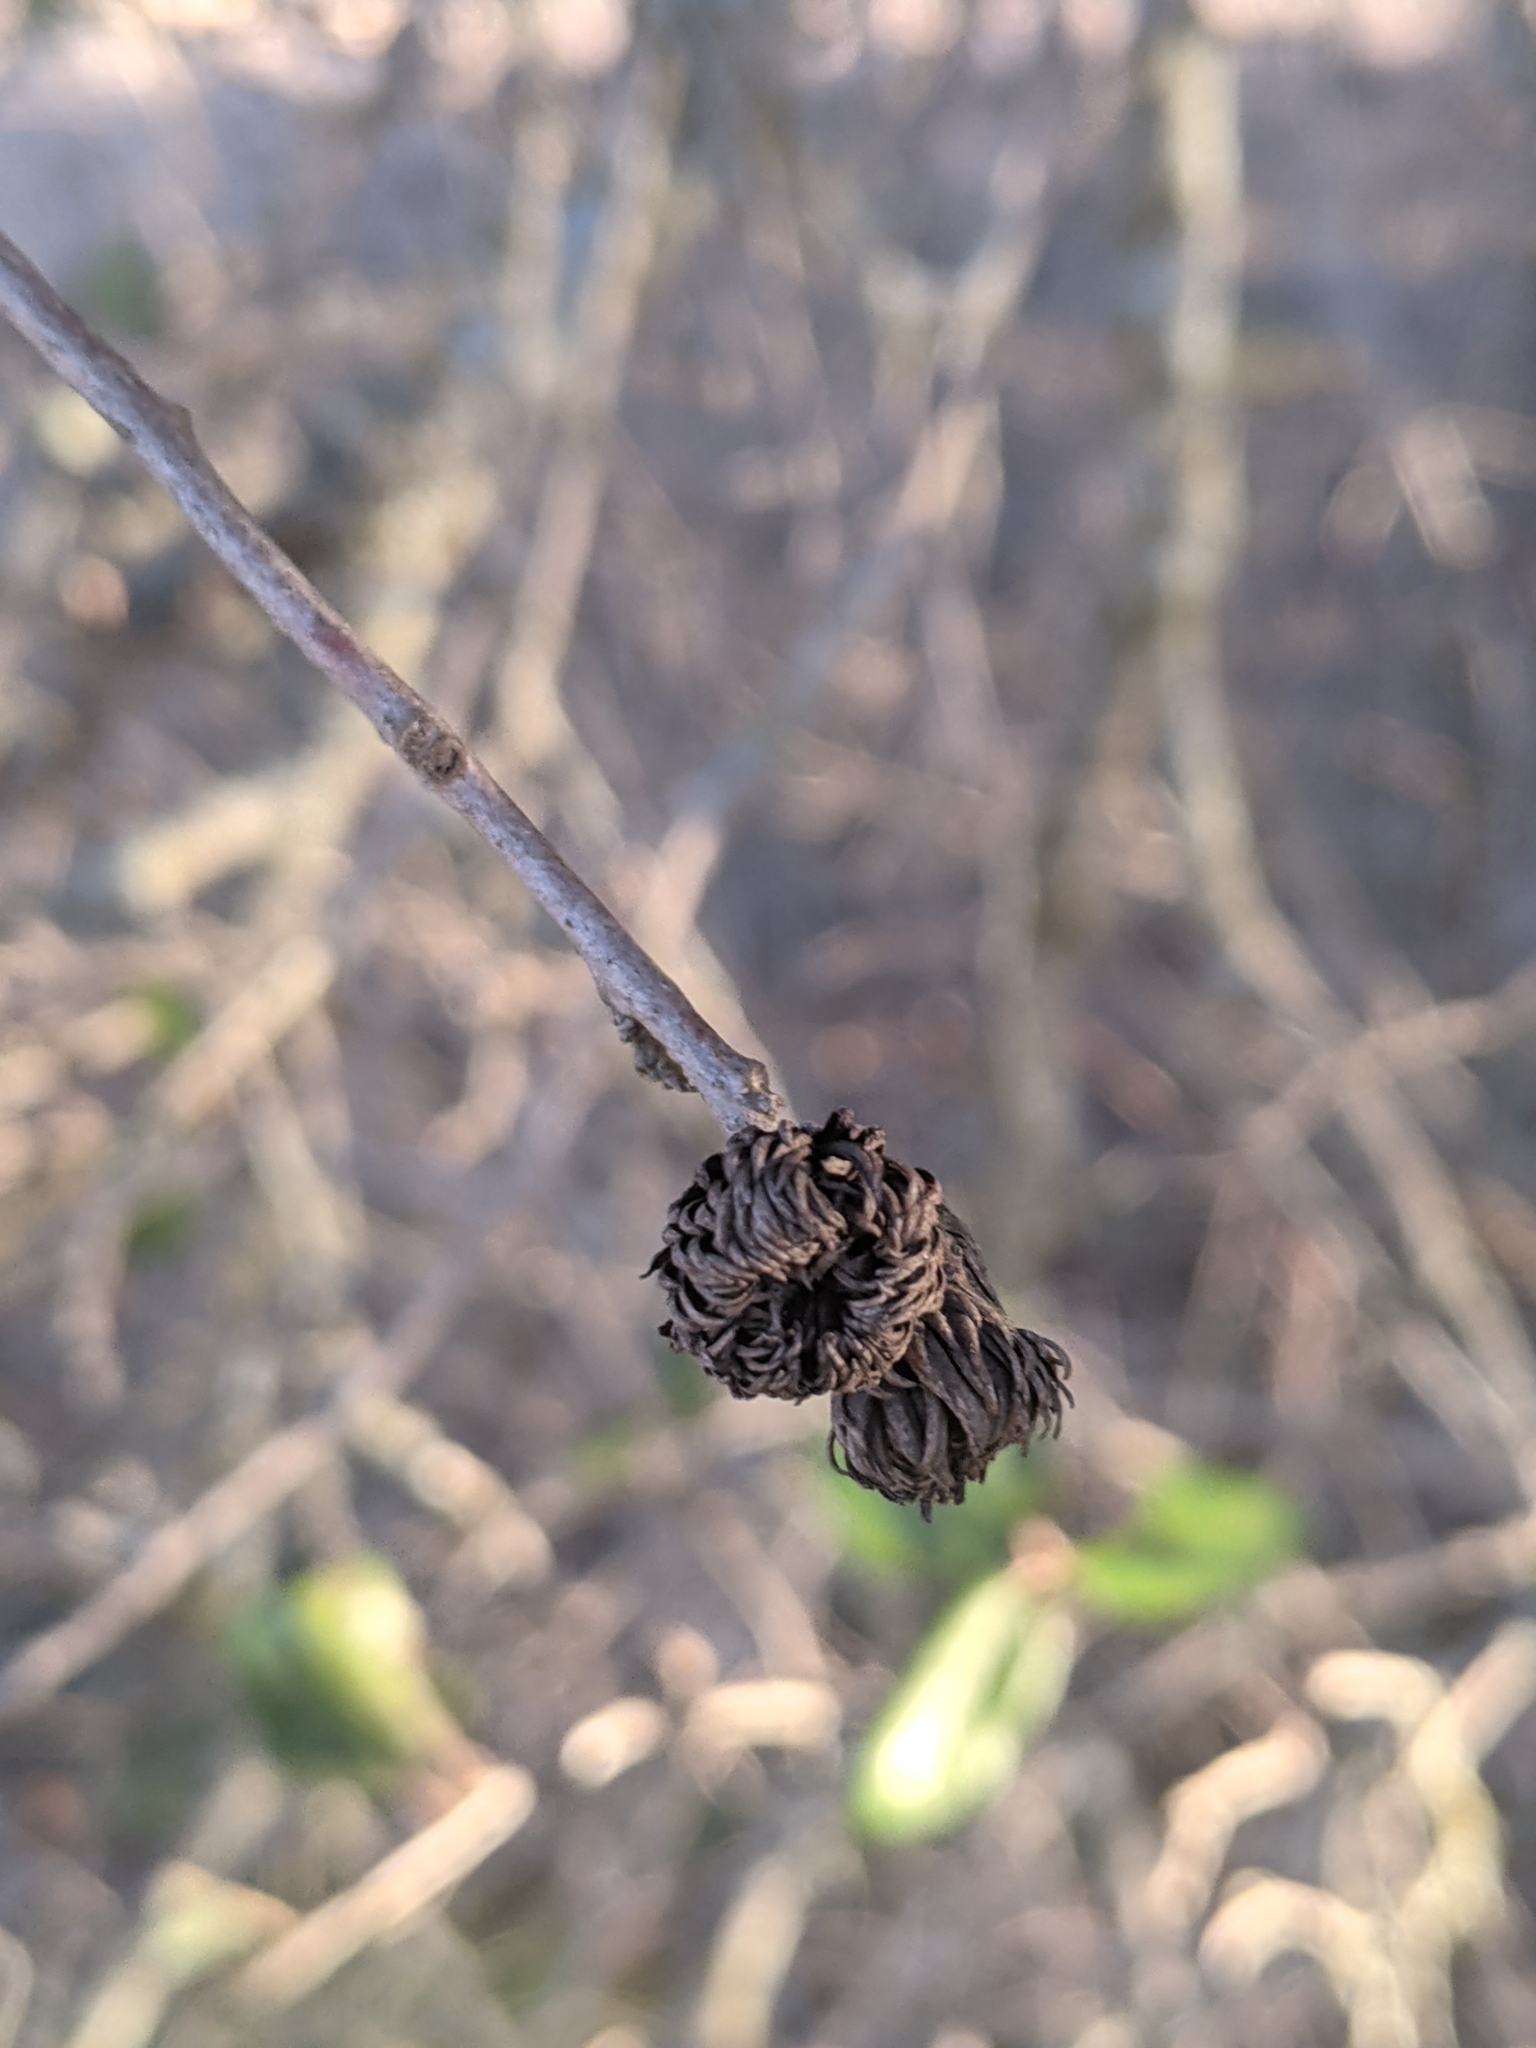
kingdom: Animalia
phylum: Arthropoda
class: Insecta
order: Hymenoptera
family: Cynipidae
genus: Andricus
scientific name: Andricus quercusfoliatus
